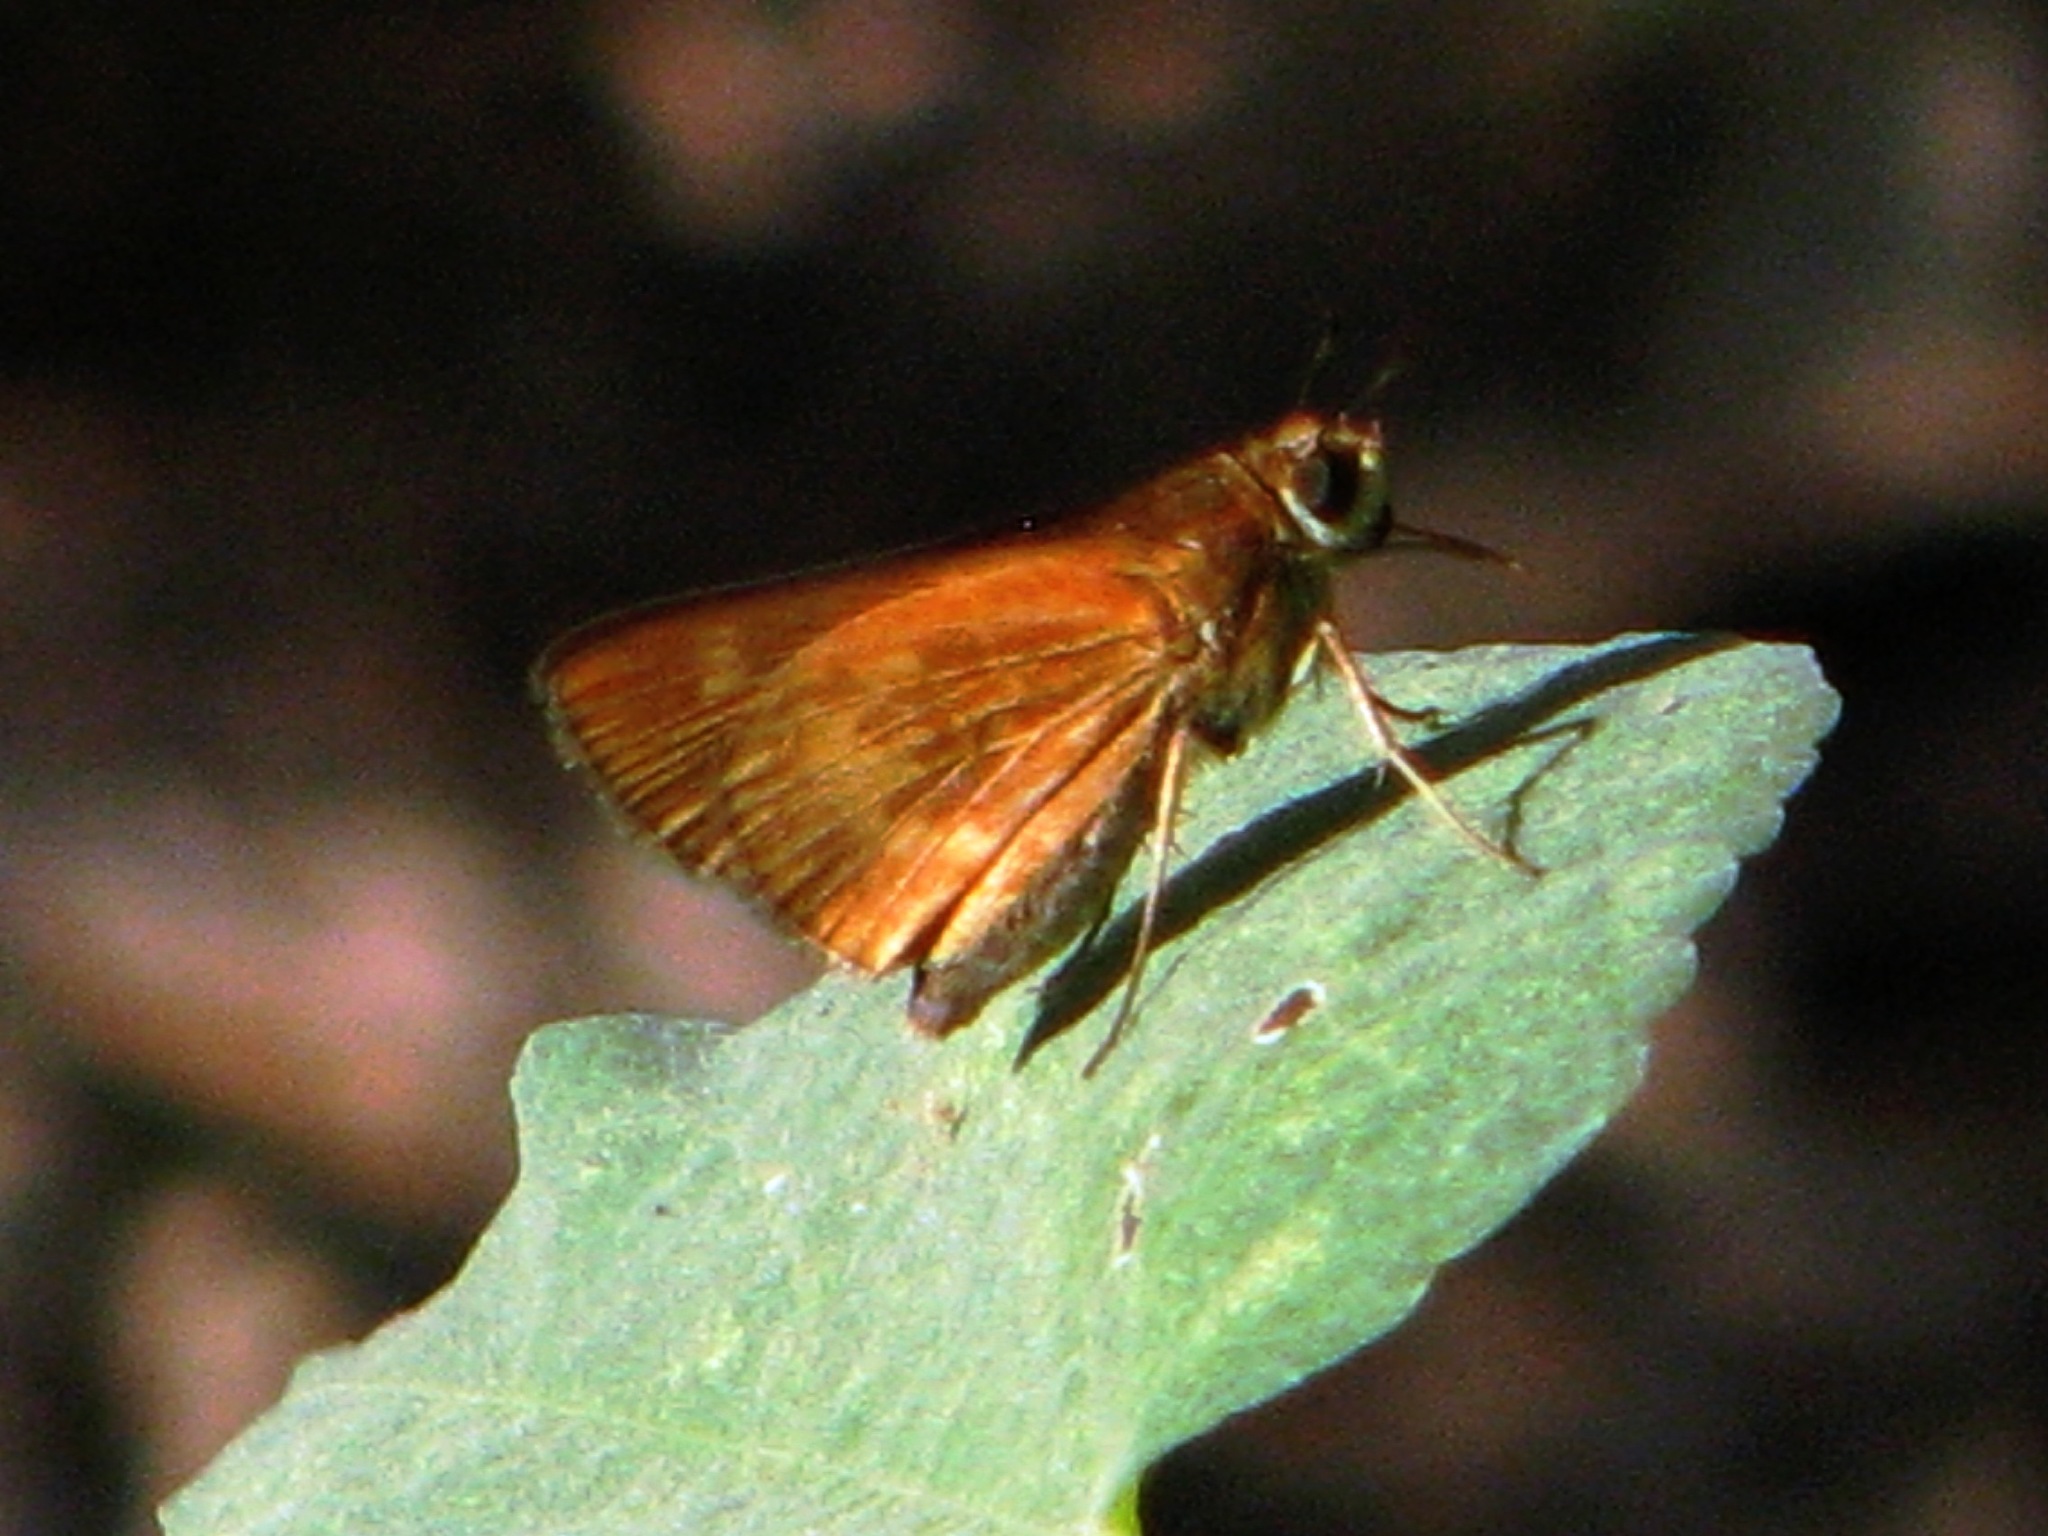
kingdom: Animalia
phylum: Arthropoda
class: Insecta
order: Lepidoptera
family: Hesperiidae
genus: Polites
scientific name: Polites otho
